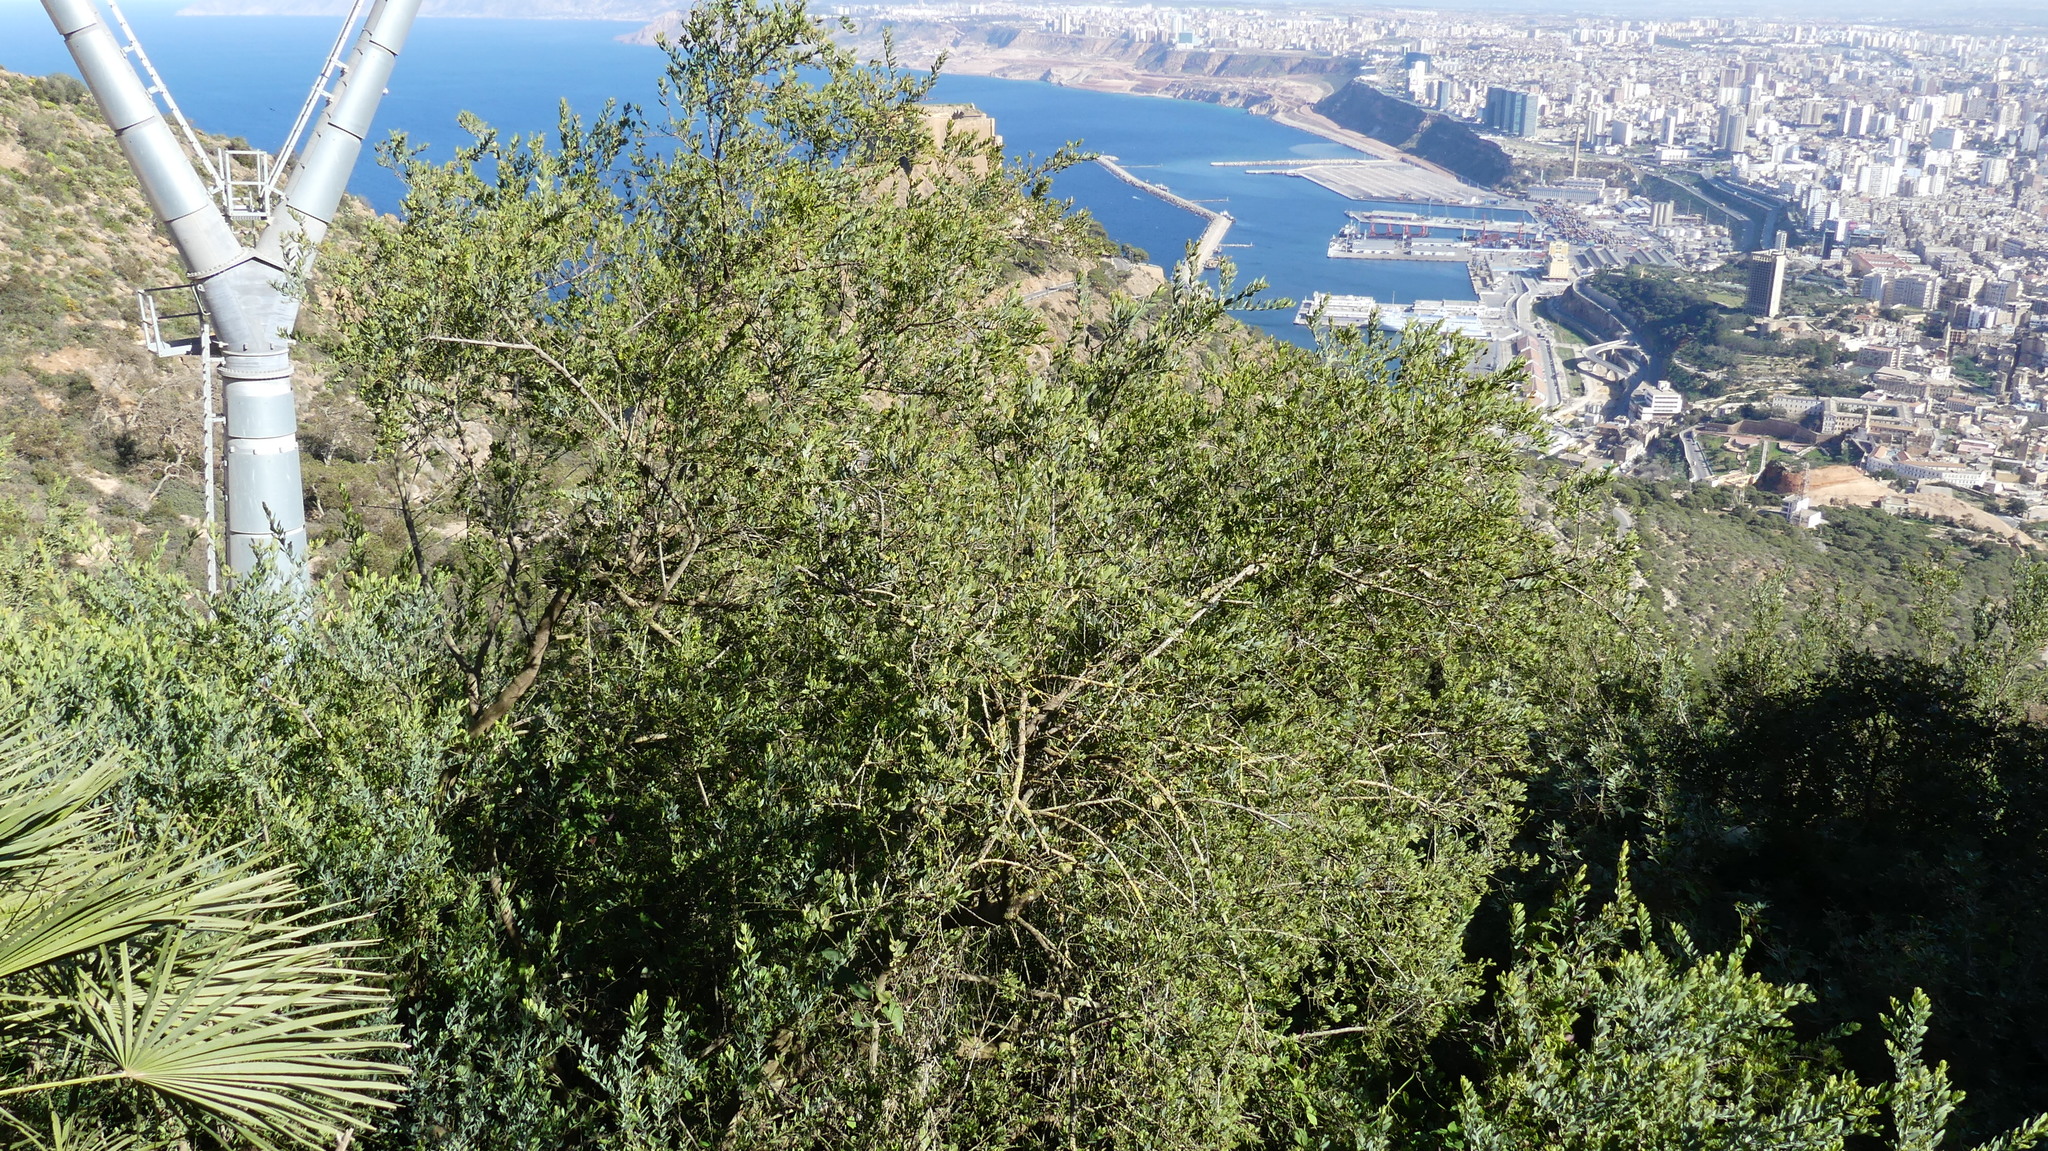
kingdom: Plantae
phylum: Tracheophyta
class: Magnoliopsida
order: Santalales
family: Santalaceae
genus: Osyris
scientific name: Osyris lanceolata
